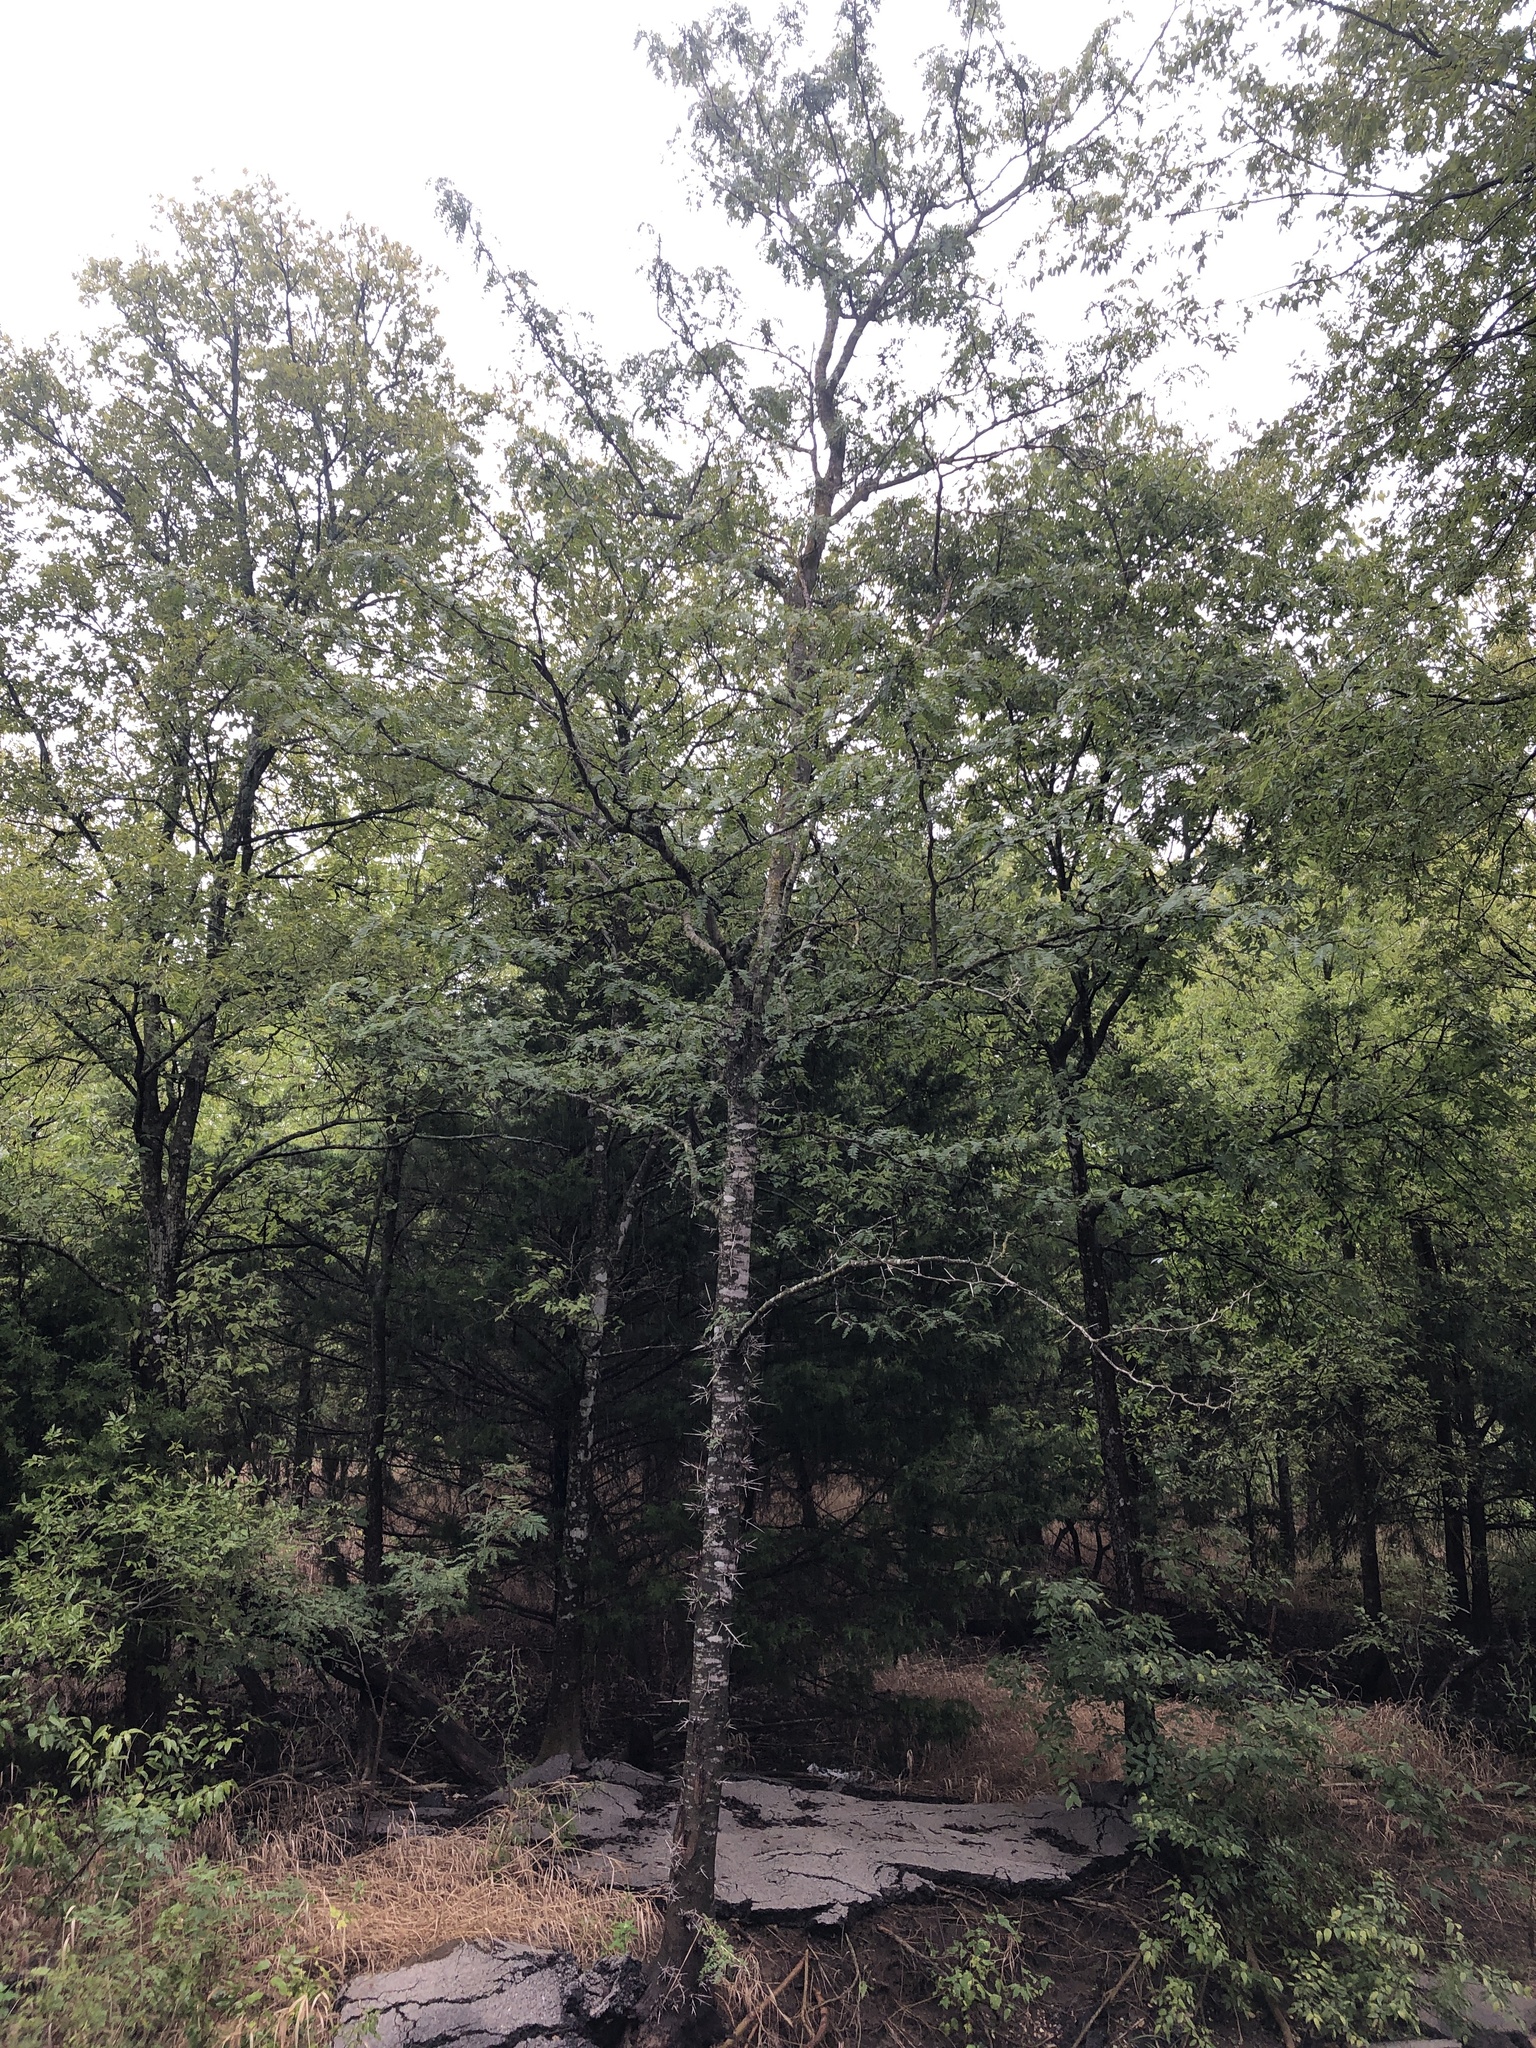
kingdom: Plantae
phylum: Tracheophyta
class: Magnoliopsida
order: Fabales
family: Fabaceae
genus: Gleditsia
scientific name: Gleditsia triacanthos
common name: Common honeylocust
